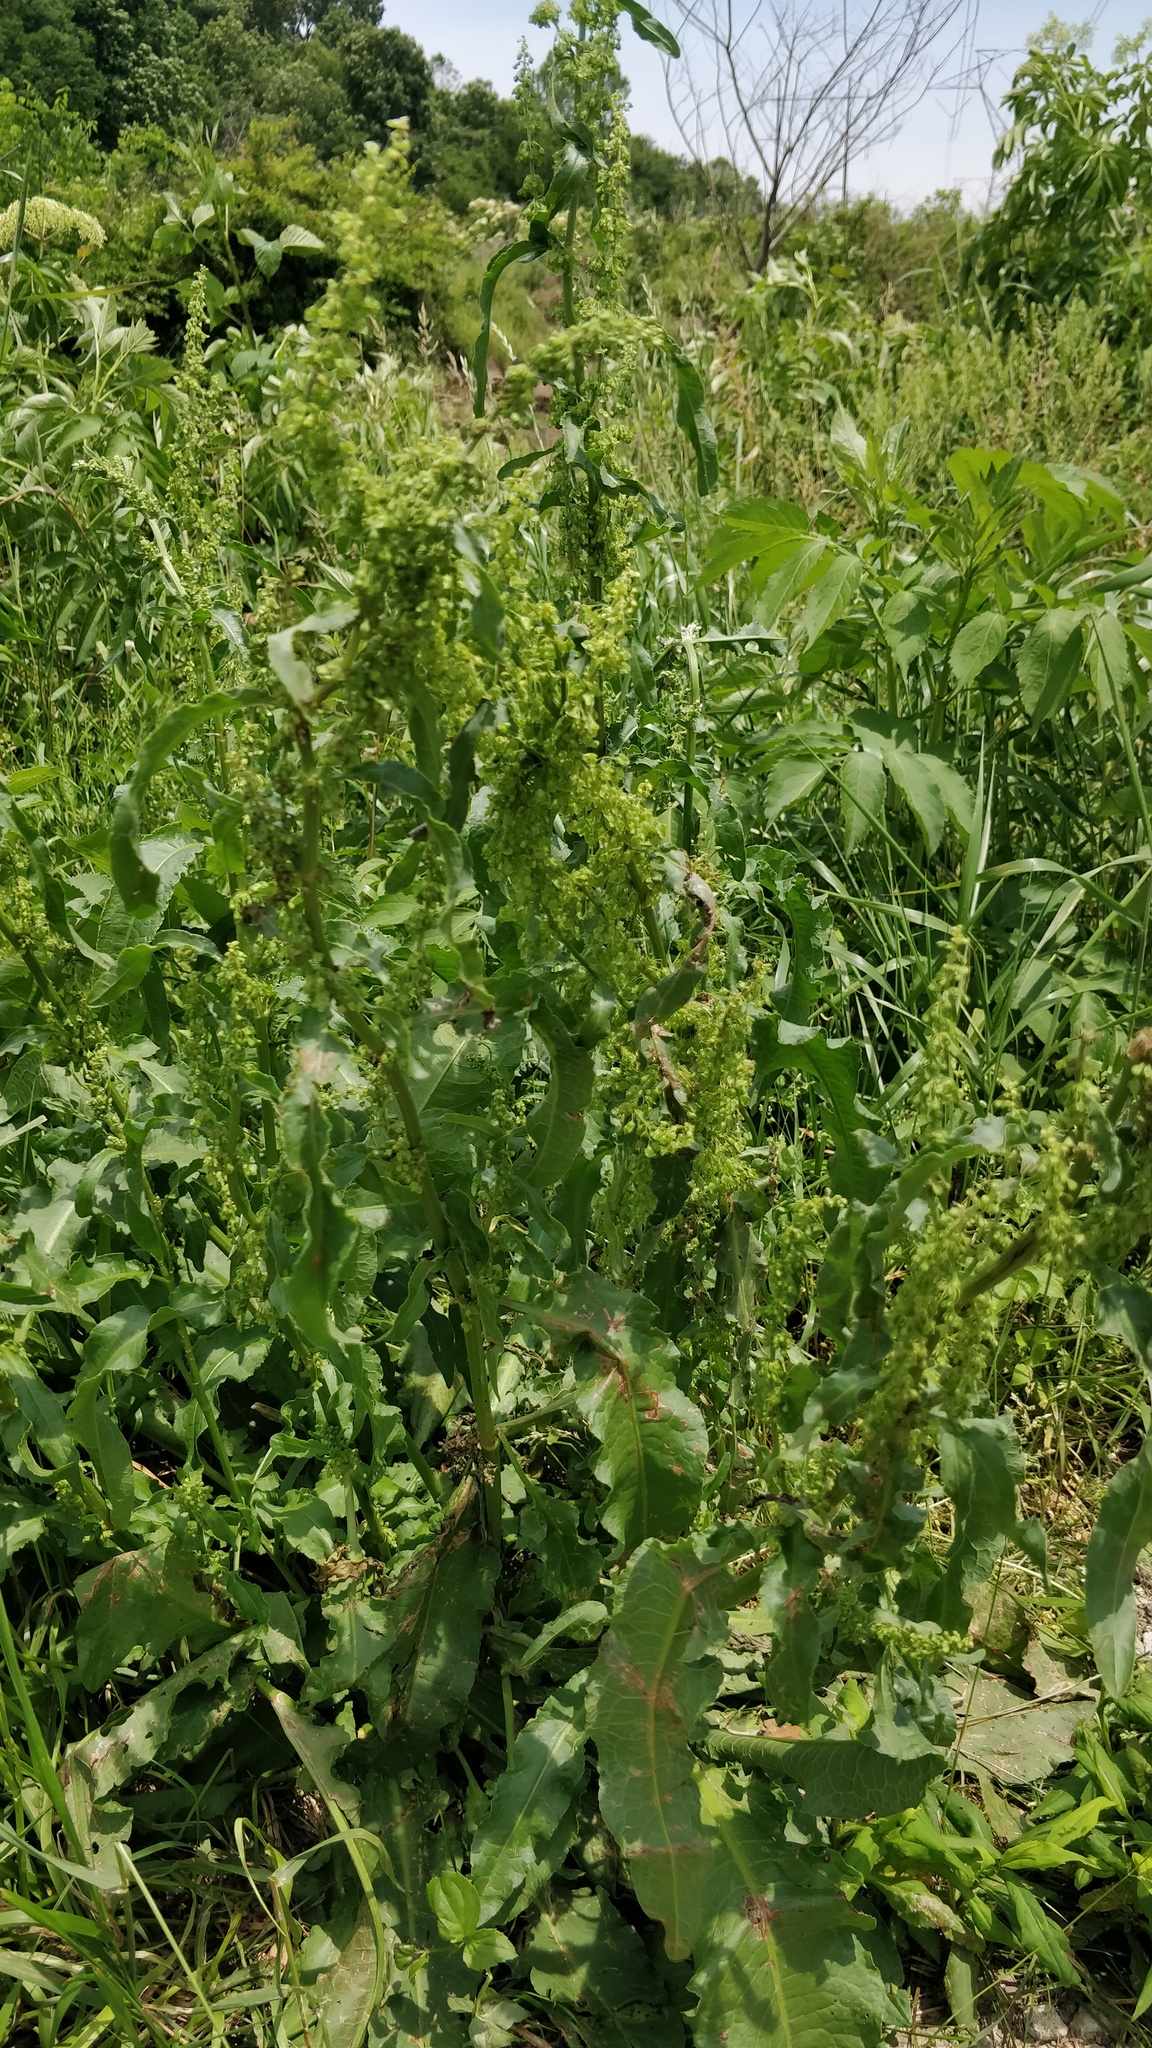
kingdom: Plantae
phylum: Tracheophyta
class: Magnoliopsida
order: Caryophyllales
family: Polygonaceae
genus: Rumex
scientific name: Rumex crispus
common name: Curled dock
